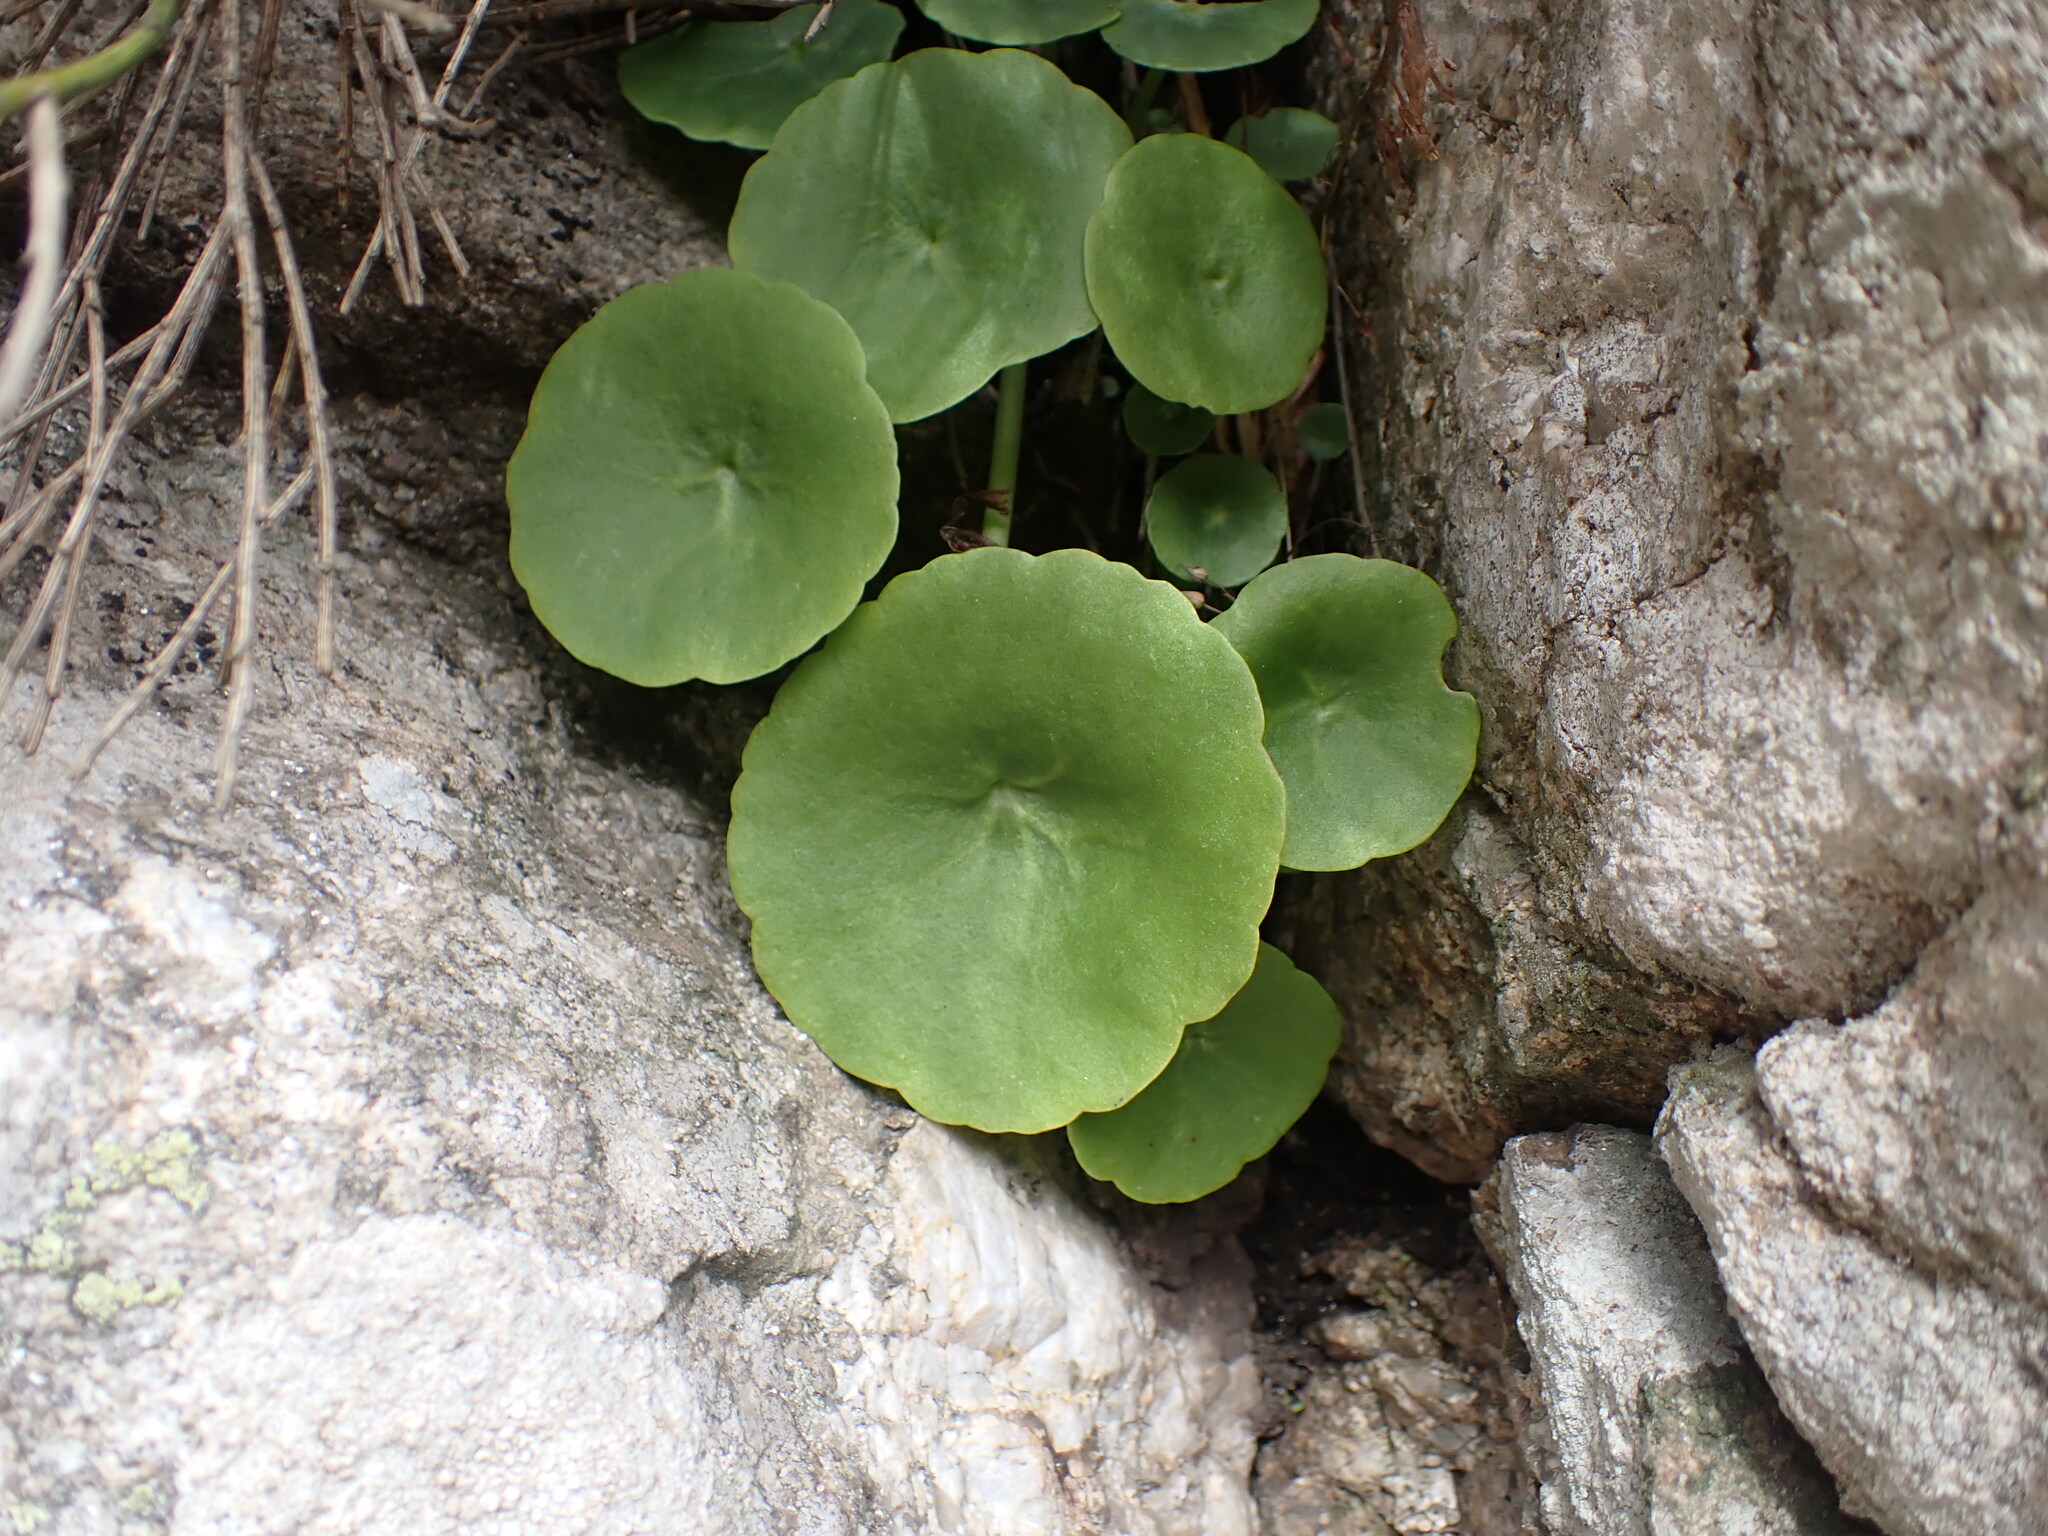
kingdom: Plantae
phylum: Tracheophyta
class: Magnoliopsida
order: Saxifragales
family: Crassulaceae
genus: Umbilicus
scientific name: Umbilicus rupestris
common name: Navelwort
